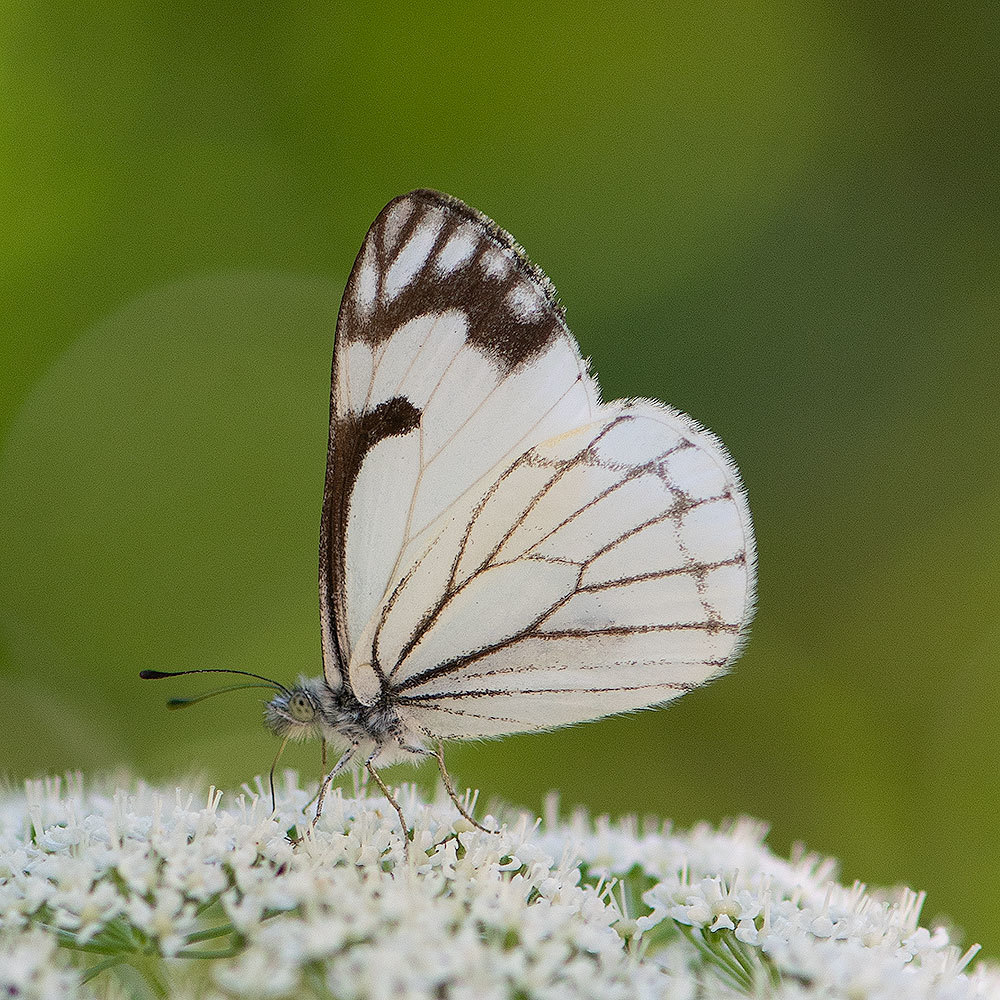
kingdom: Animalia
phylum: Arthropoda
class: Insecta
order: Lepidoptera
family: Pieridae
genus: Neophasia
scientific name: Neophasia menapia
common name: Pine white
